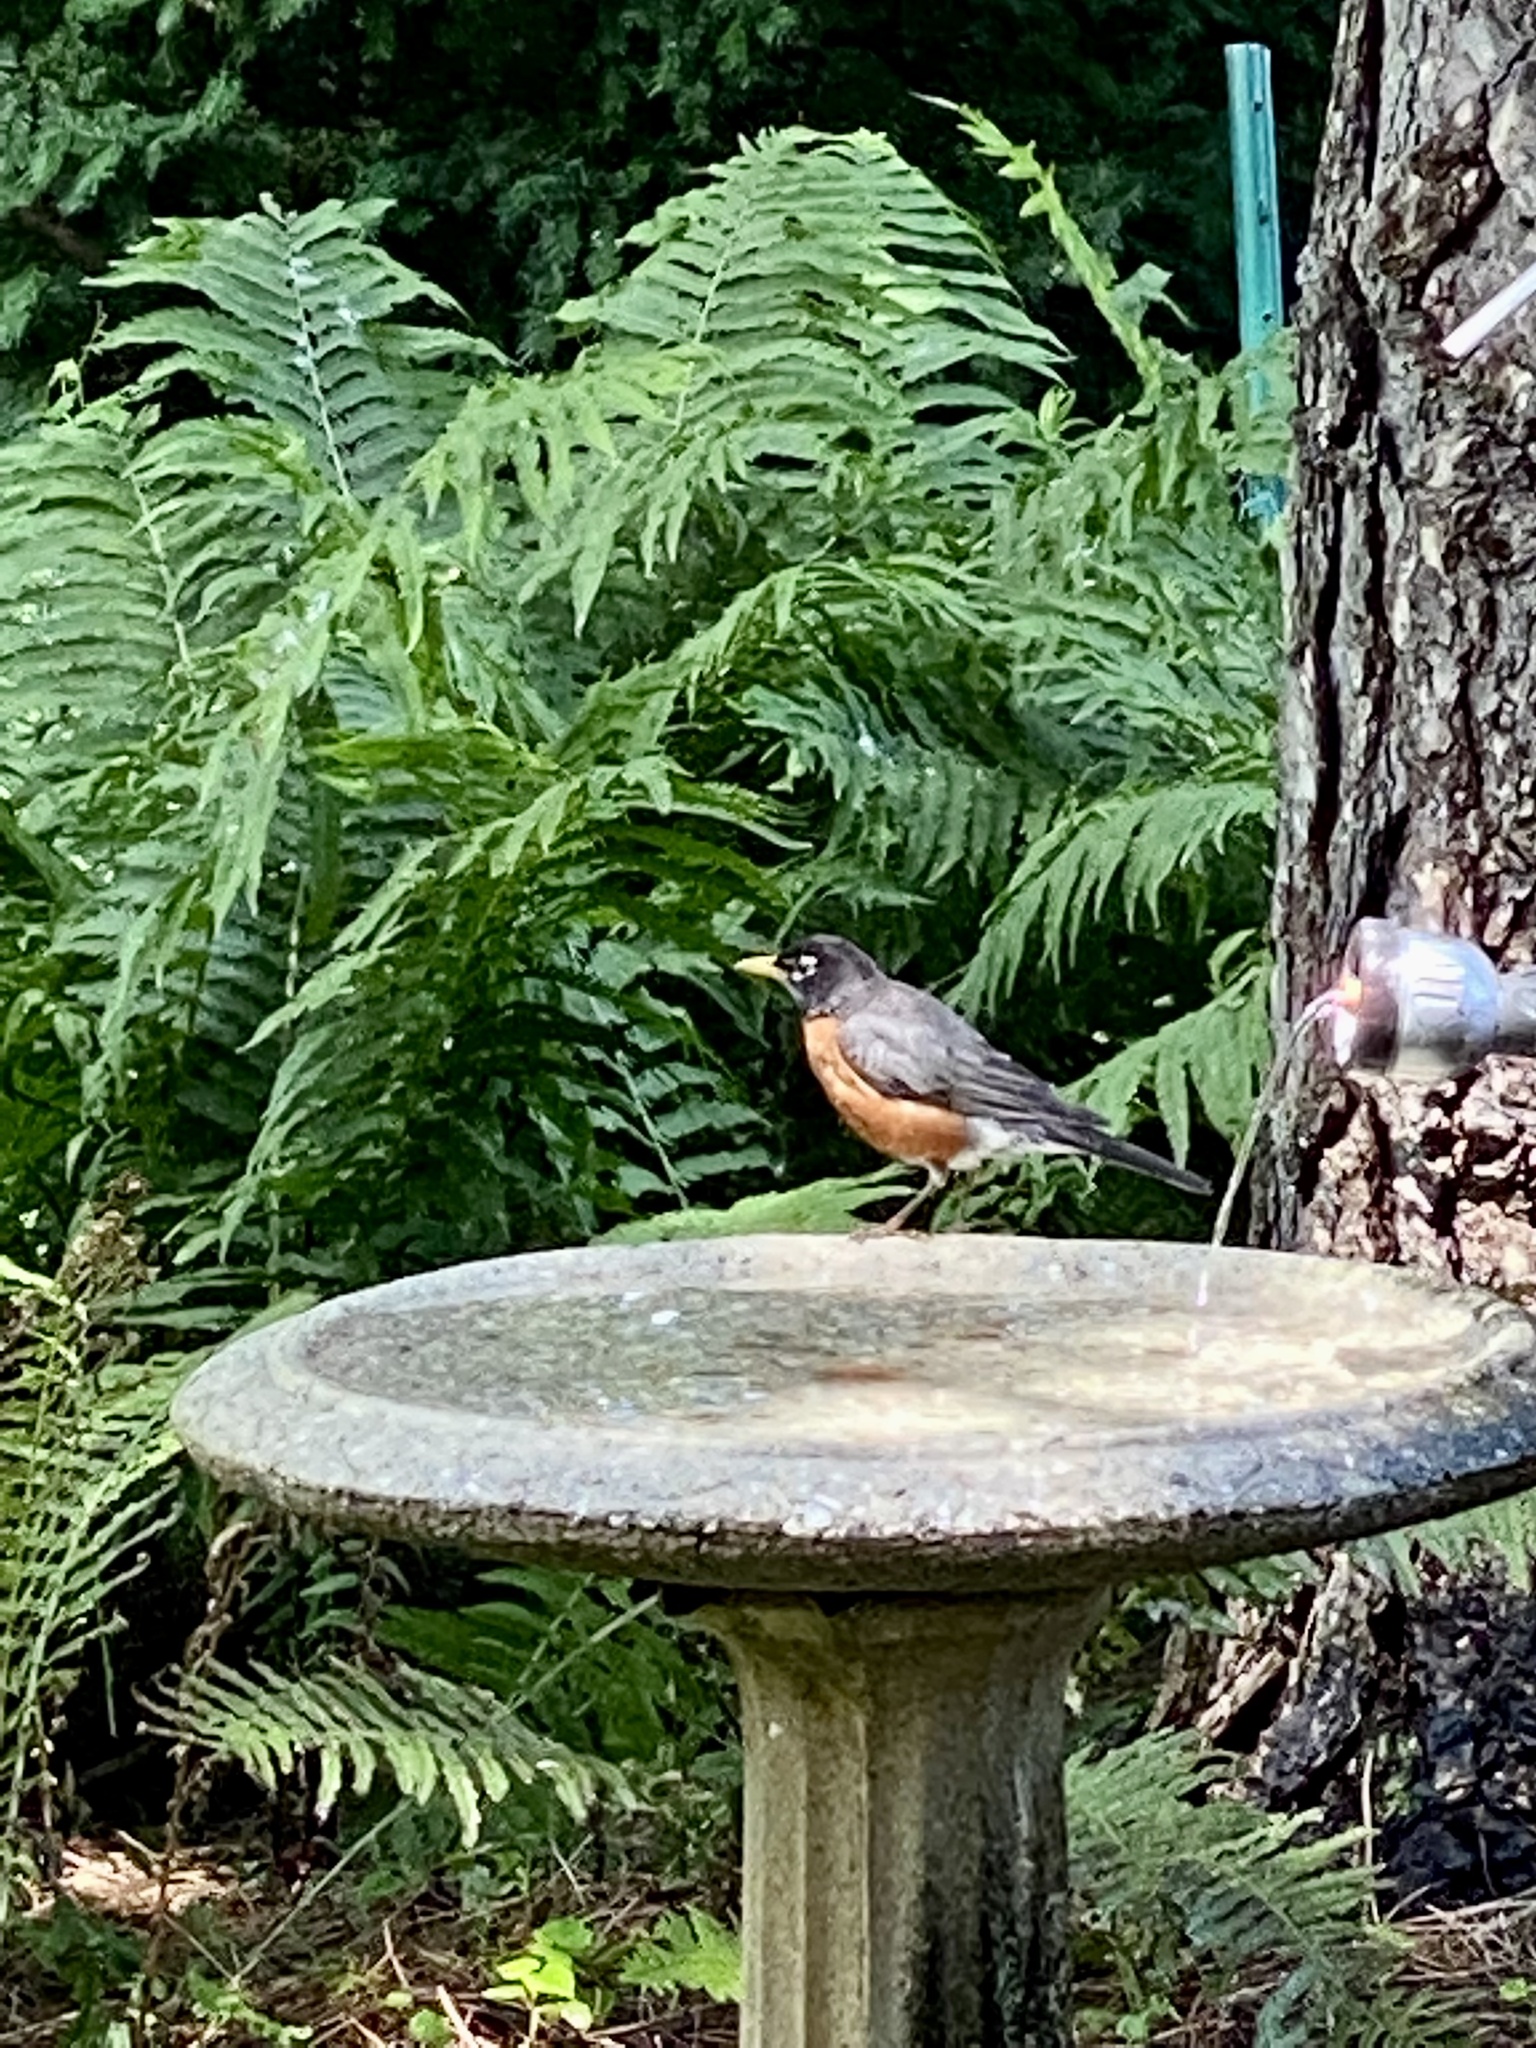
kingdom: Animalia
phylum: Chordata
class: Aves
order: Passeriformes
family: Turdidae
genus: Turdus
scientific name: Turdus migratorius
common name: American robin
